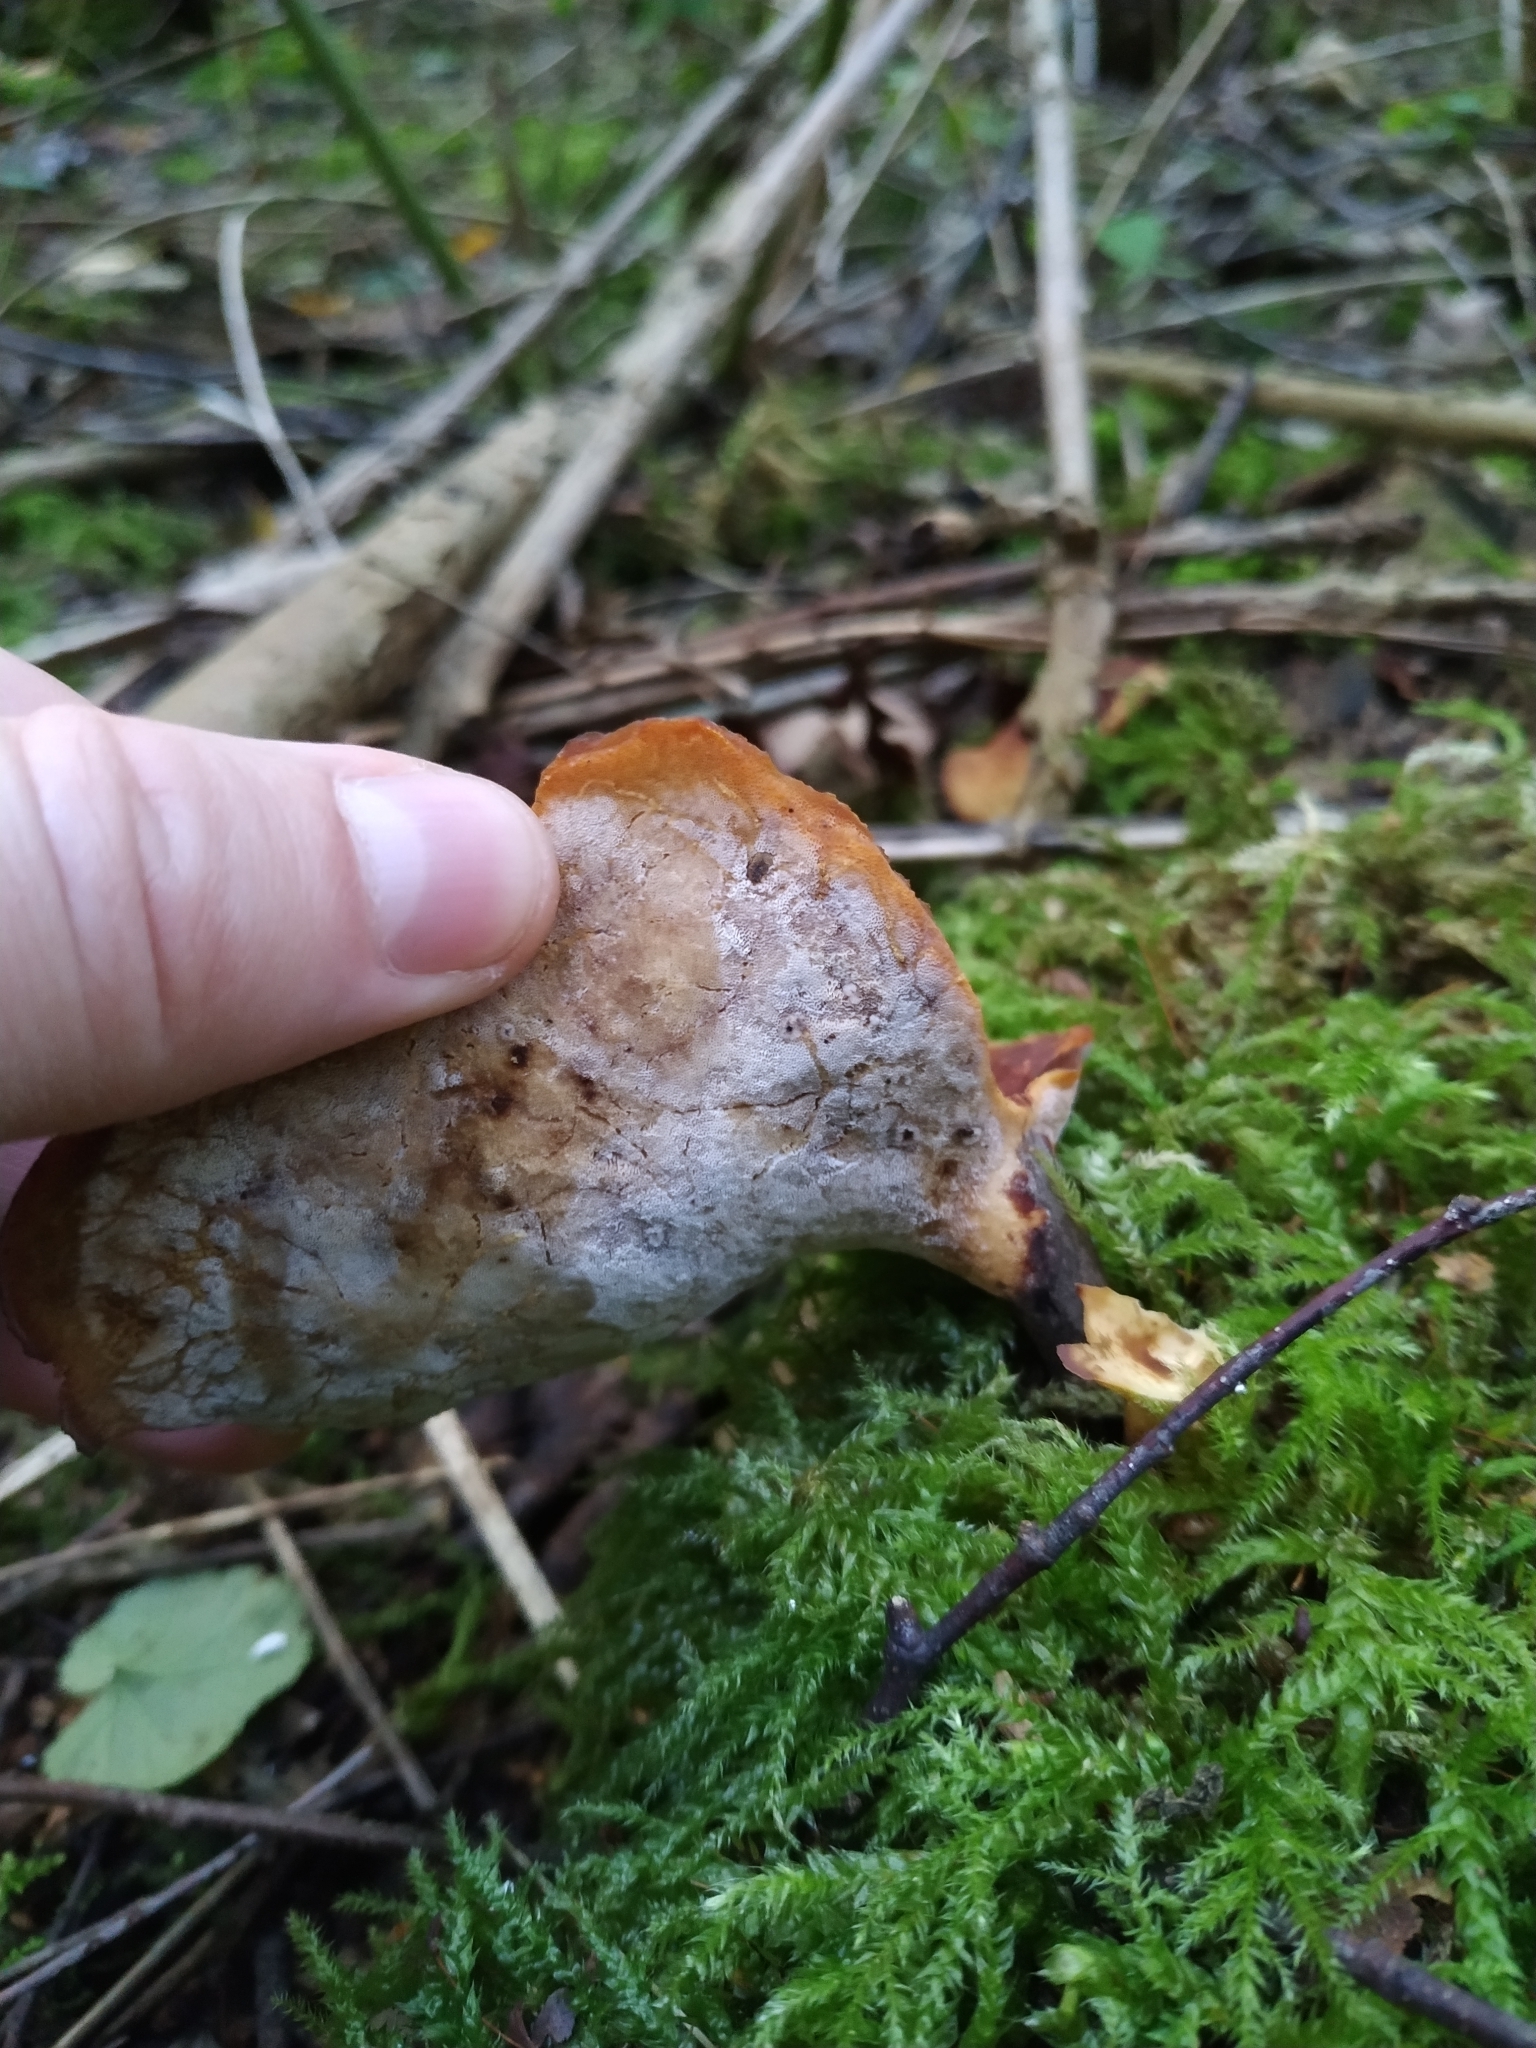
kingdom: Fungi
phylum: Basidiomycota
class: Agaricomycetes
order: Polyporales
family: Polyporaceae
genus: Picipes
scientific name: Picipes badius
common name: Bay polypore
